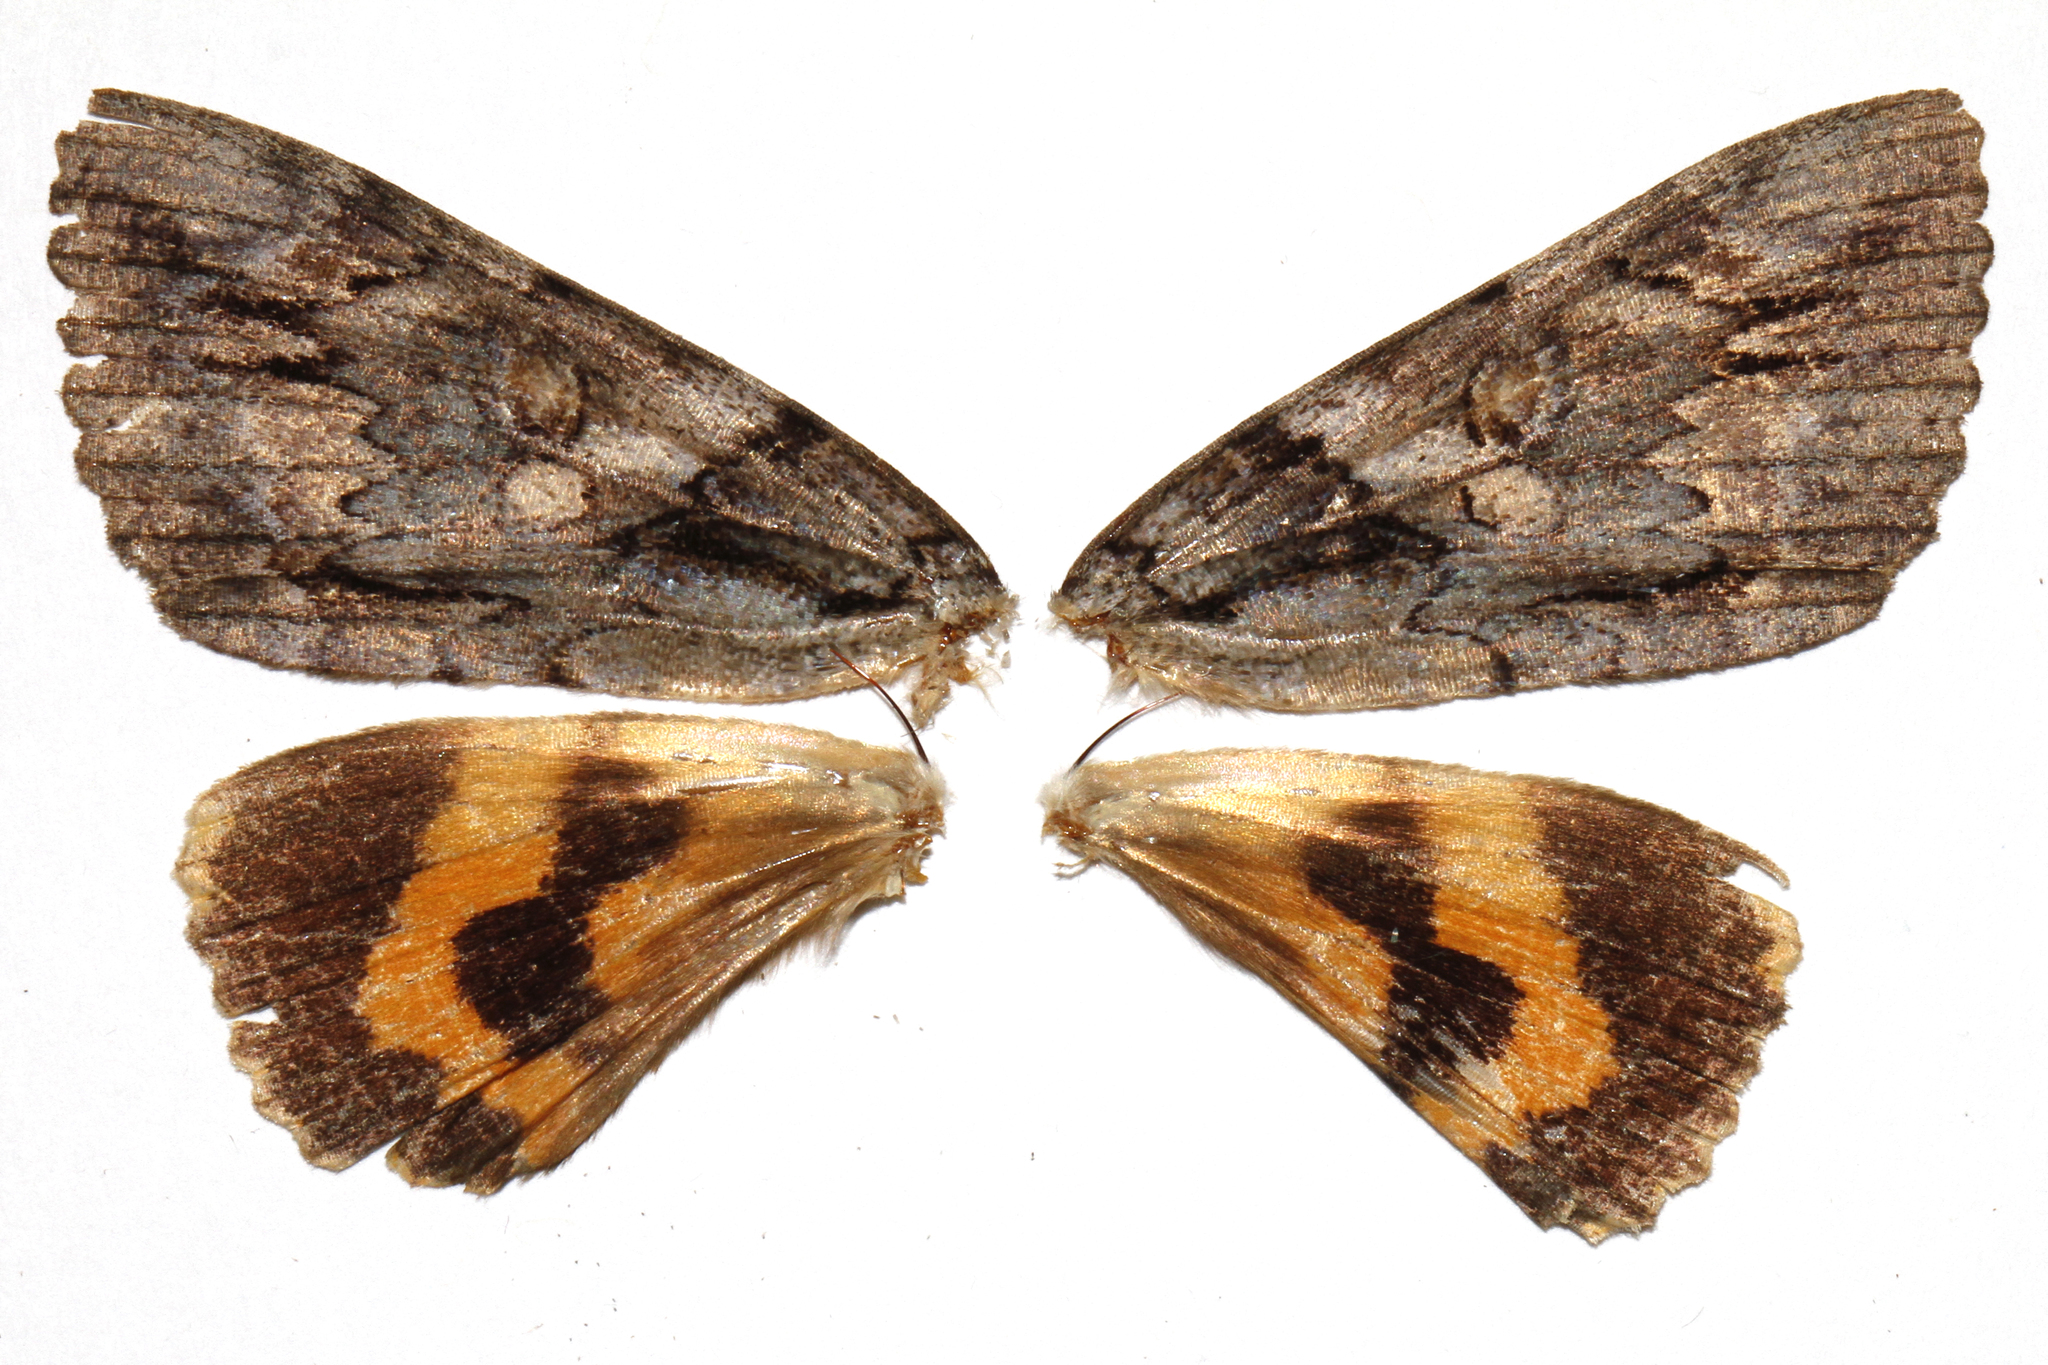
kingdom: Animalia
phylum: Arthropoda
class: Insecta
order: Lepidoptera
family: Erebidae
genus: Catocala
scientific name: Catocala neogama
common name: Bride underwing
